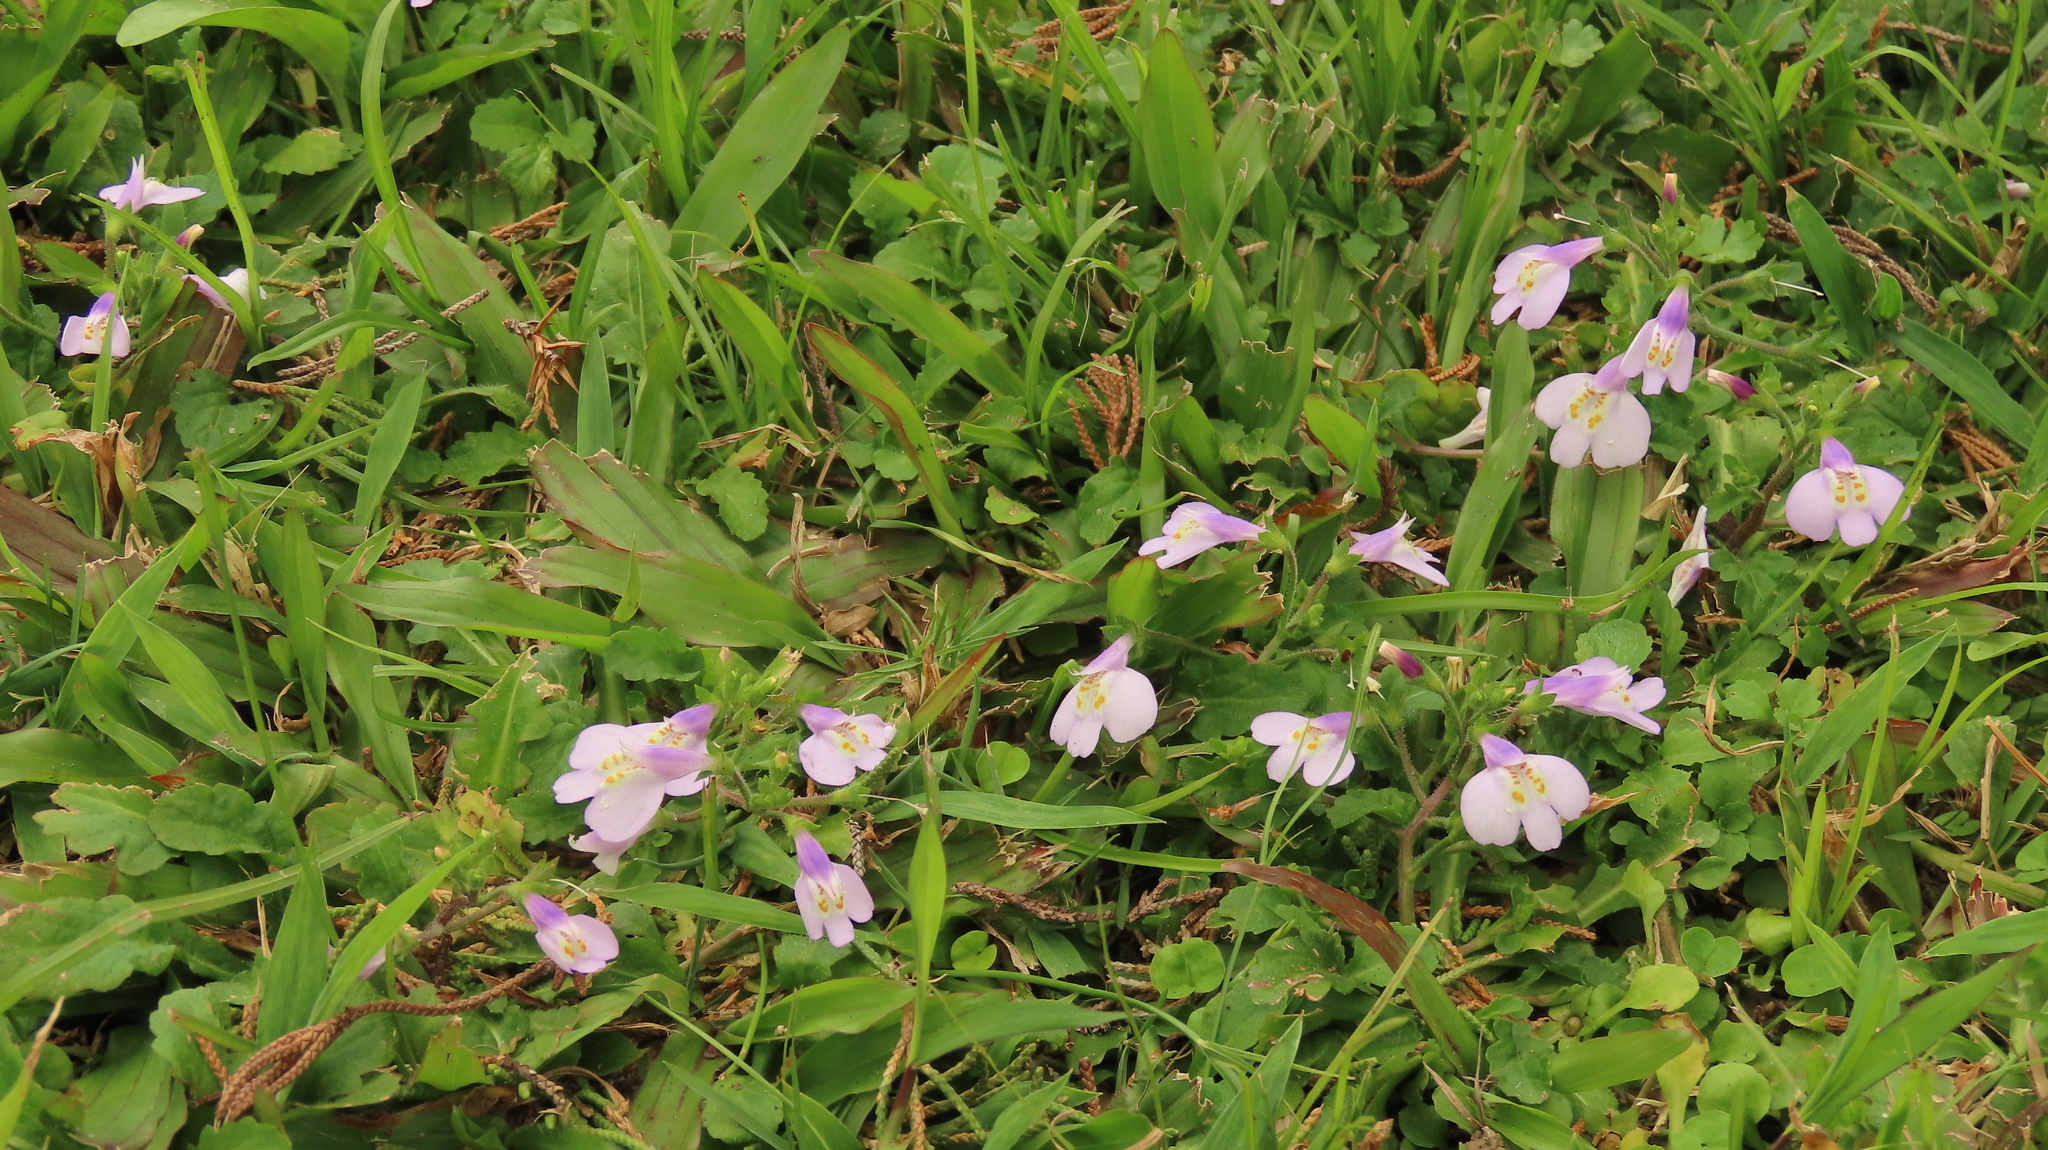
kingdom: Plantae
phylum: Tracheophyta
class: Magnoliopsida
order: Lamiales
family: Mazaceae
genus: Mazus
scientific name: Mazus fauriei
